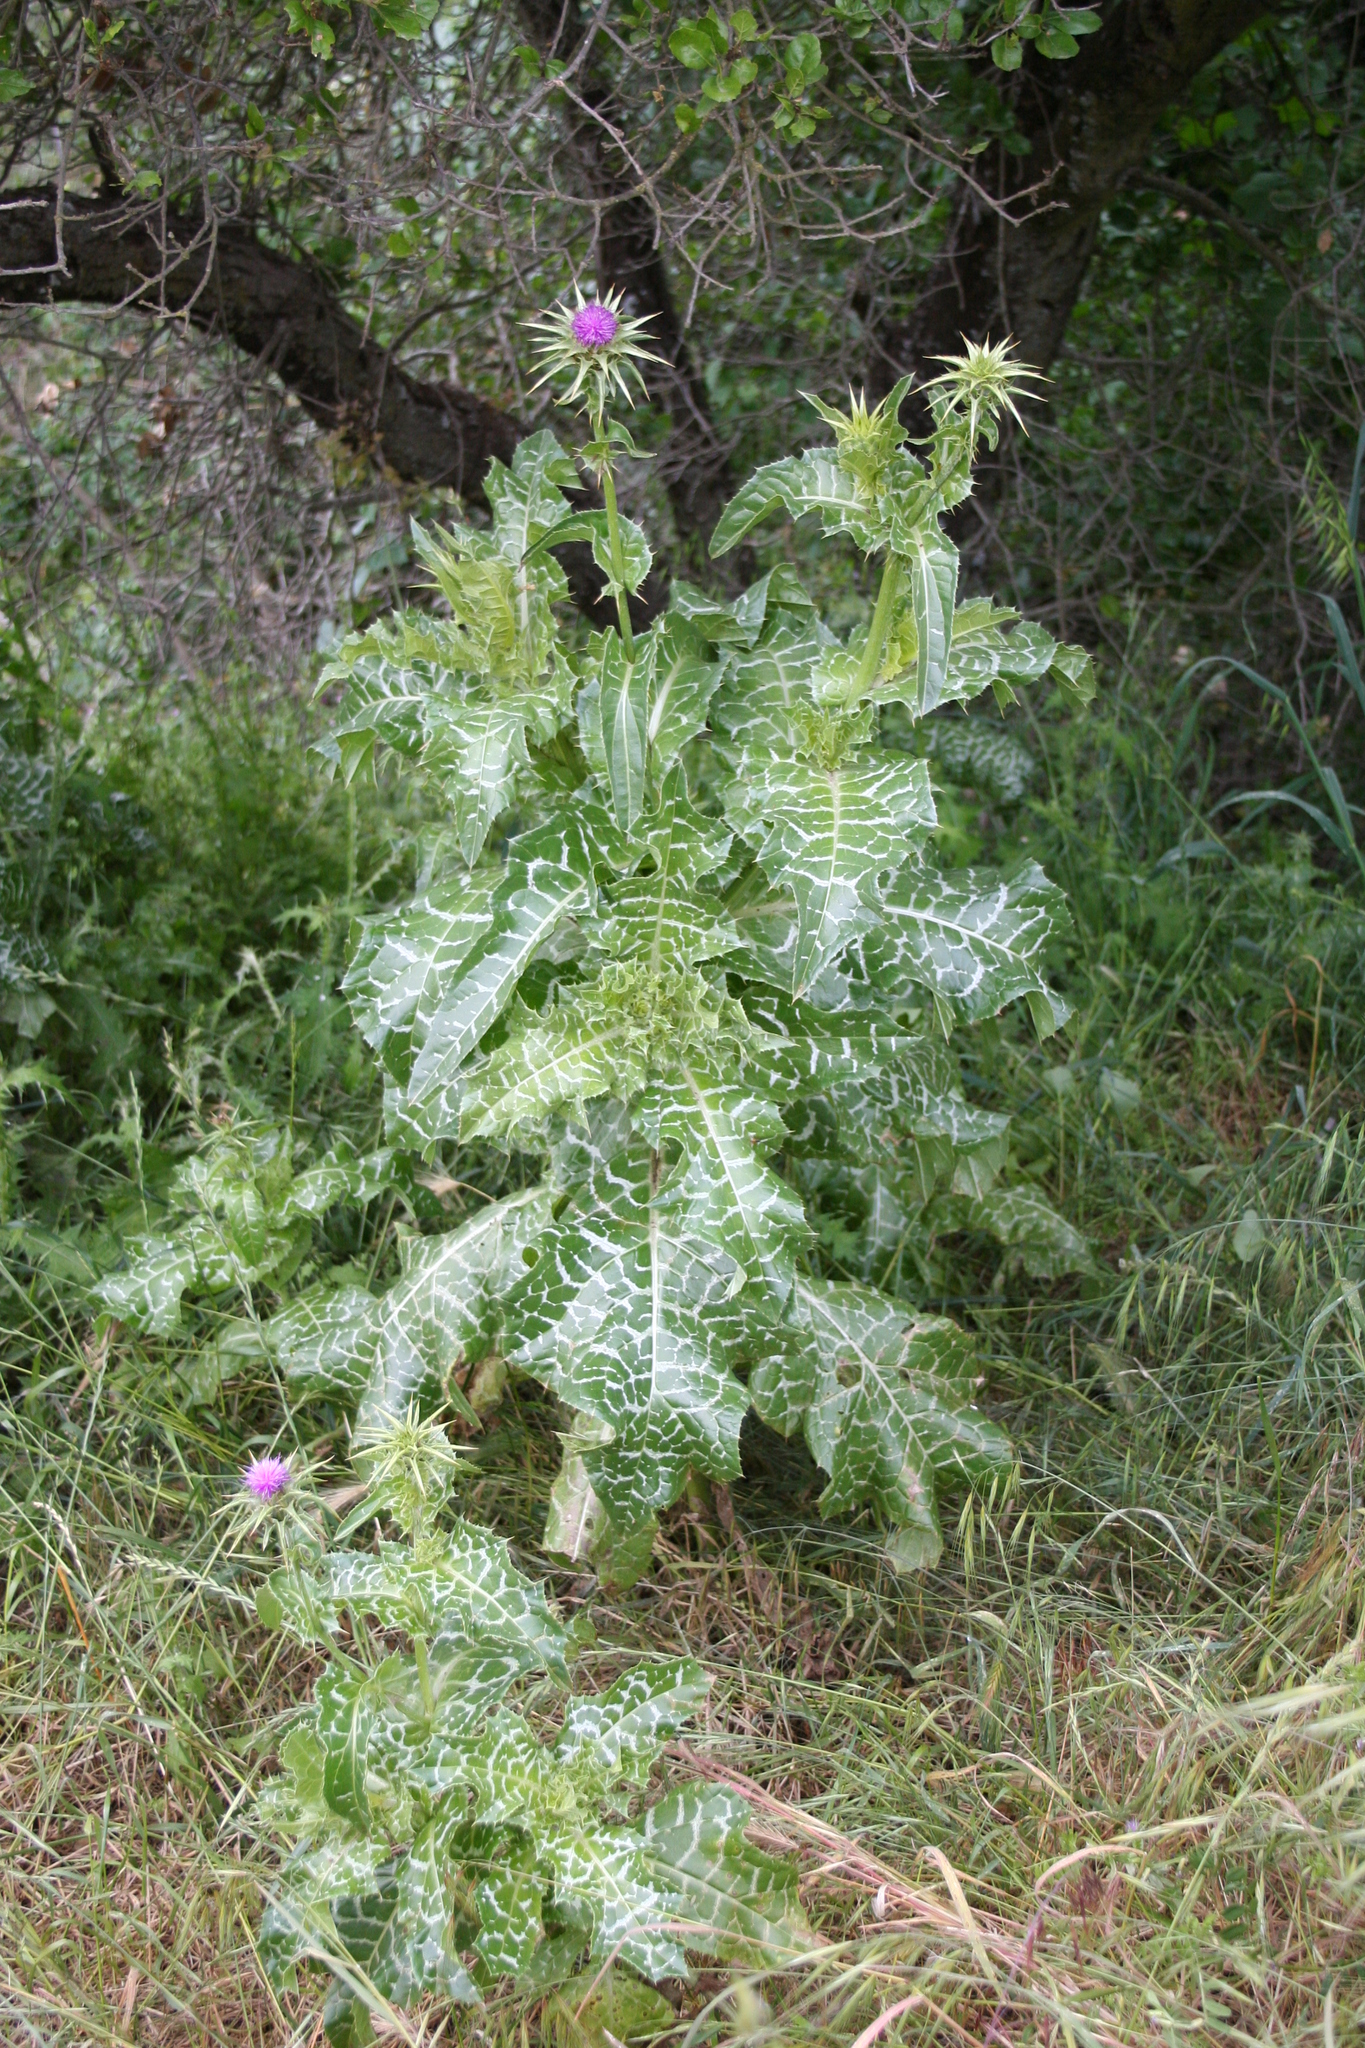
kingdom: Plantae
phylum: Tracheophyta
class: Magnoliopsida
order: Asterales
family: Asteraceae
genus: Silybum
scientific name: Silybum marianum
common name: Milk thistle
